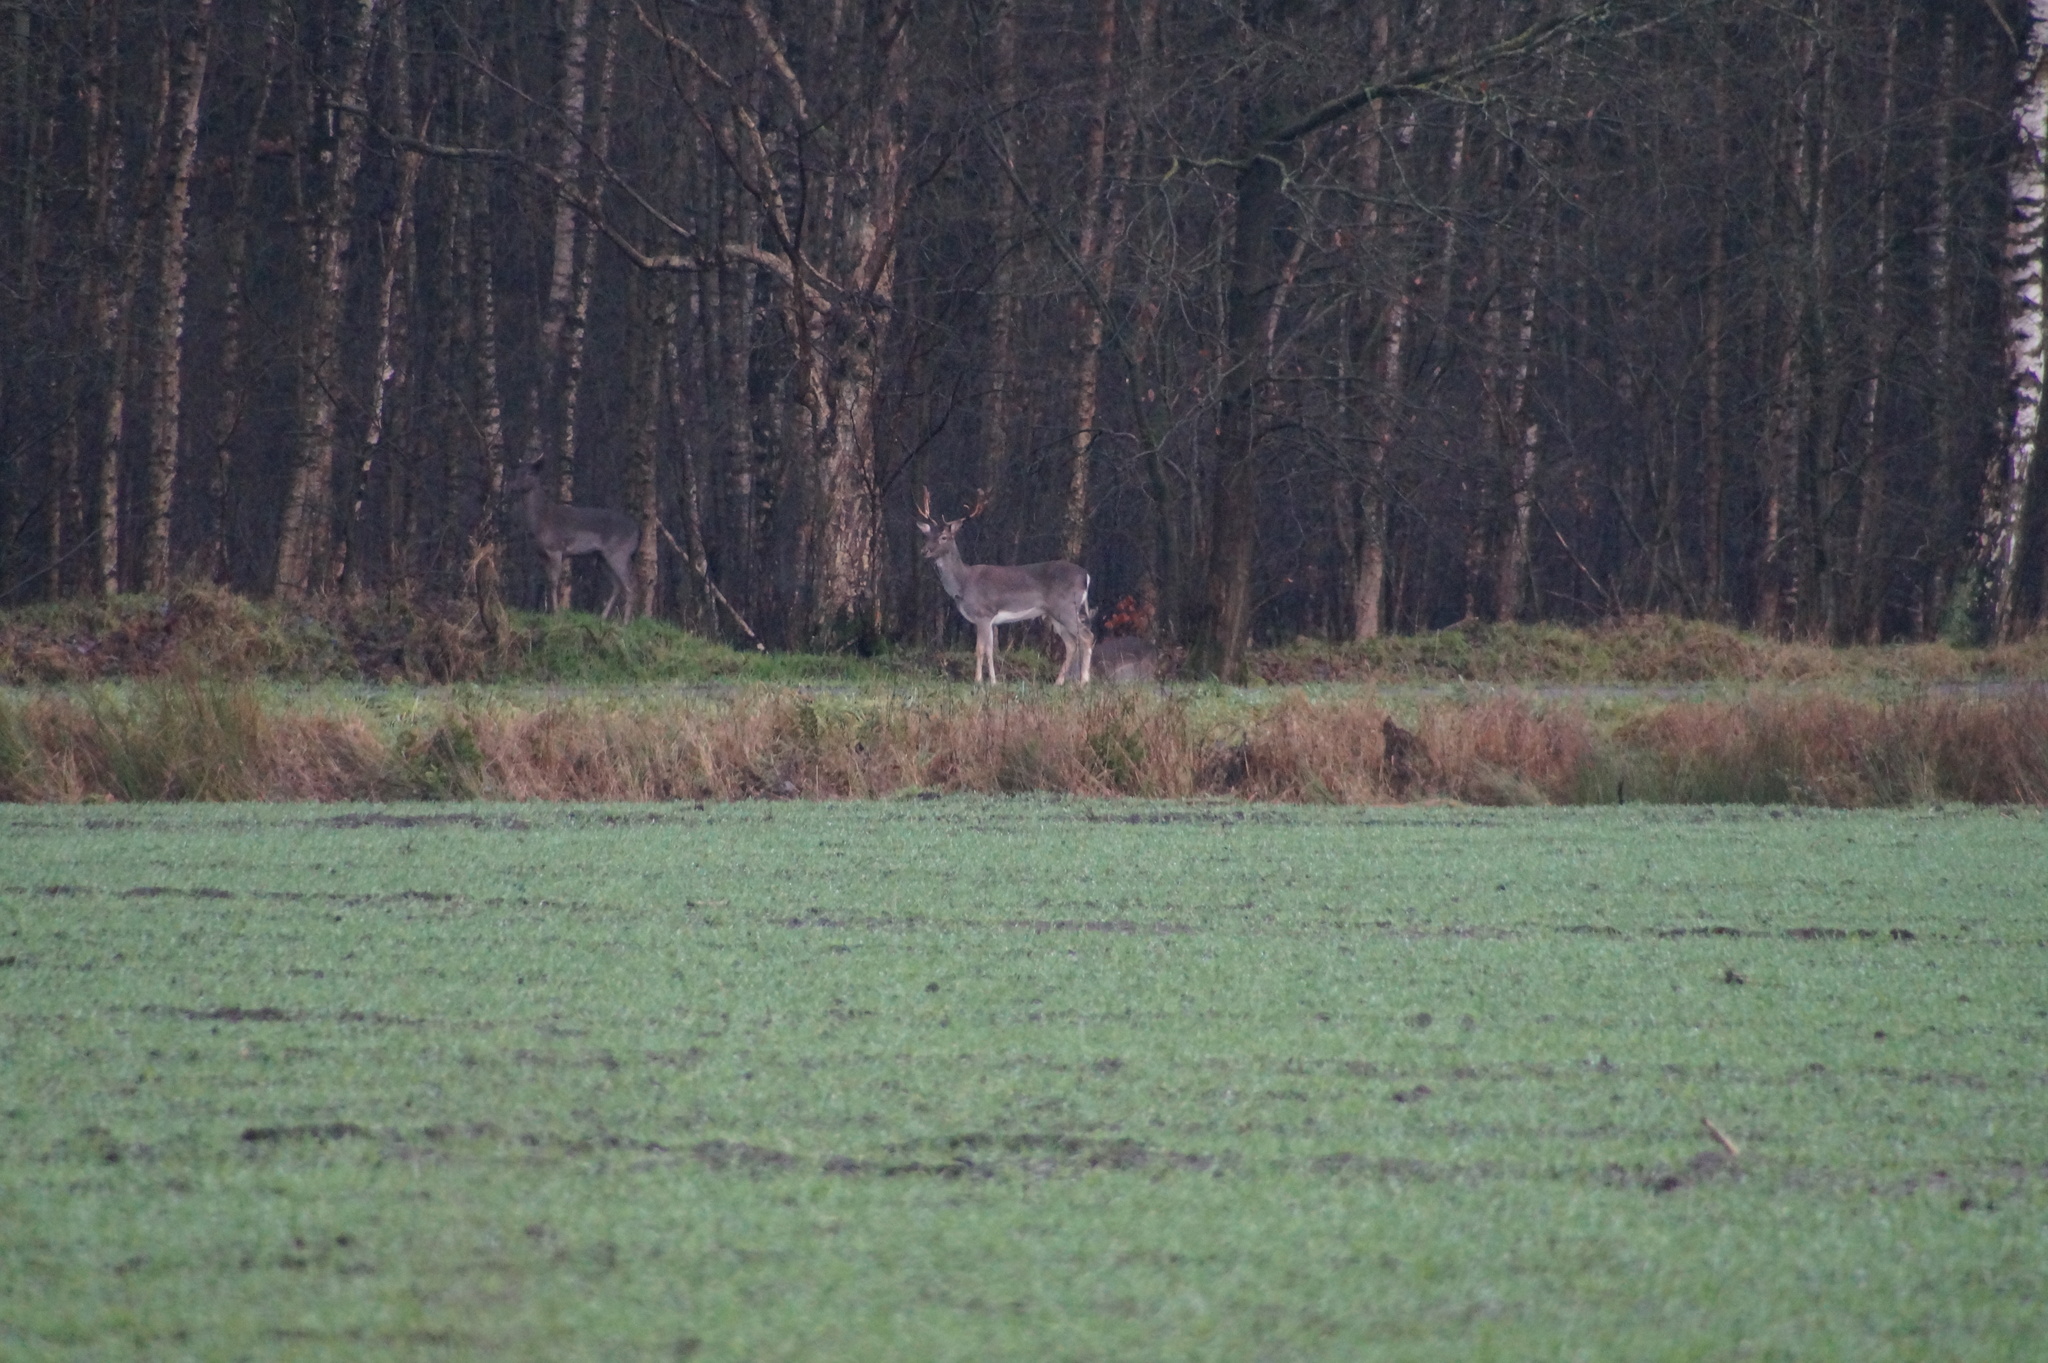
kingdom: Animalia
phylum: Chordata
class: Mammalia
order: Artiodactyla
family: Cervidae
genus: Dama
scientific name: Dama dama
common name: Fallow deer
